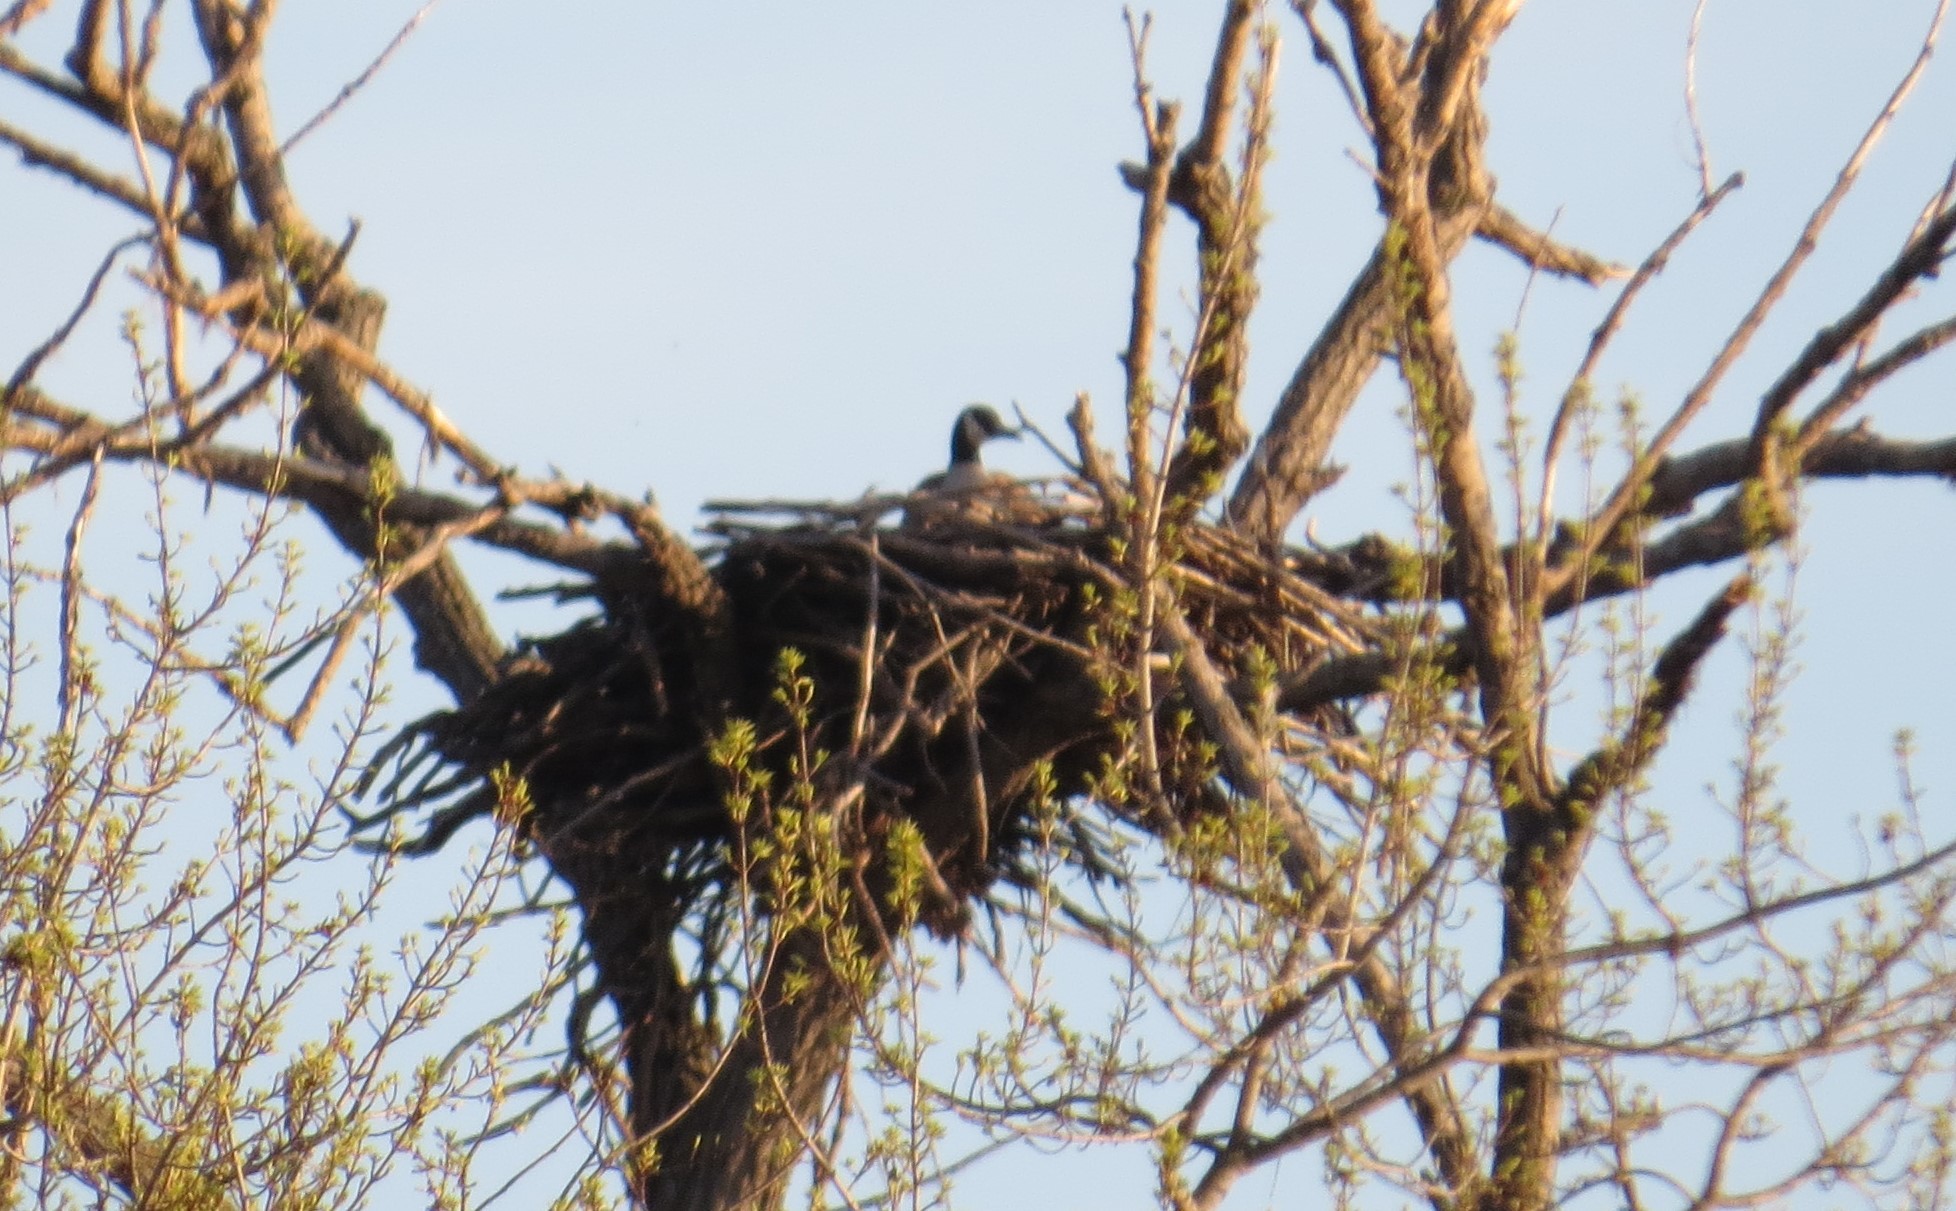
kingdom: Animalia
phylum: Chordata
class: Aves
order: Anseriformes
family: Anatidae
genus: Branta
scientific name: Branta canadensis
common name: Canada goose
